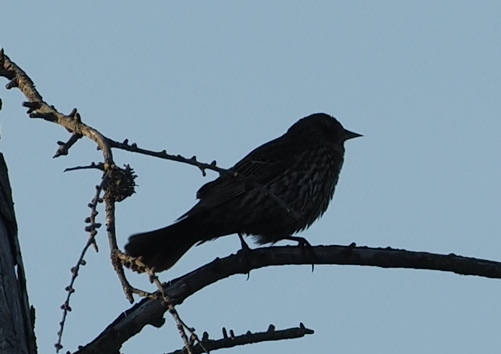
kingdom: Animalia
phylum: Chordata
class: Aves
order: Passeriformes
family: Icteridae
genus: Agelaius
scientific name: Agelaius phoeniceus
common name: Red-winged blackbird
